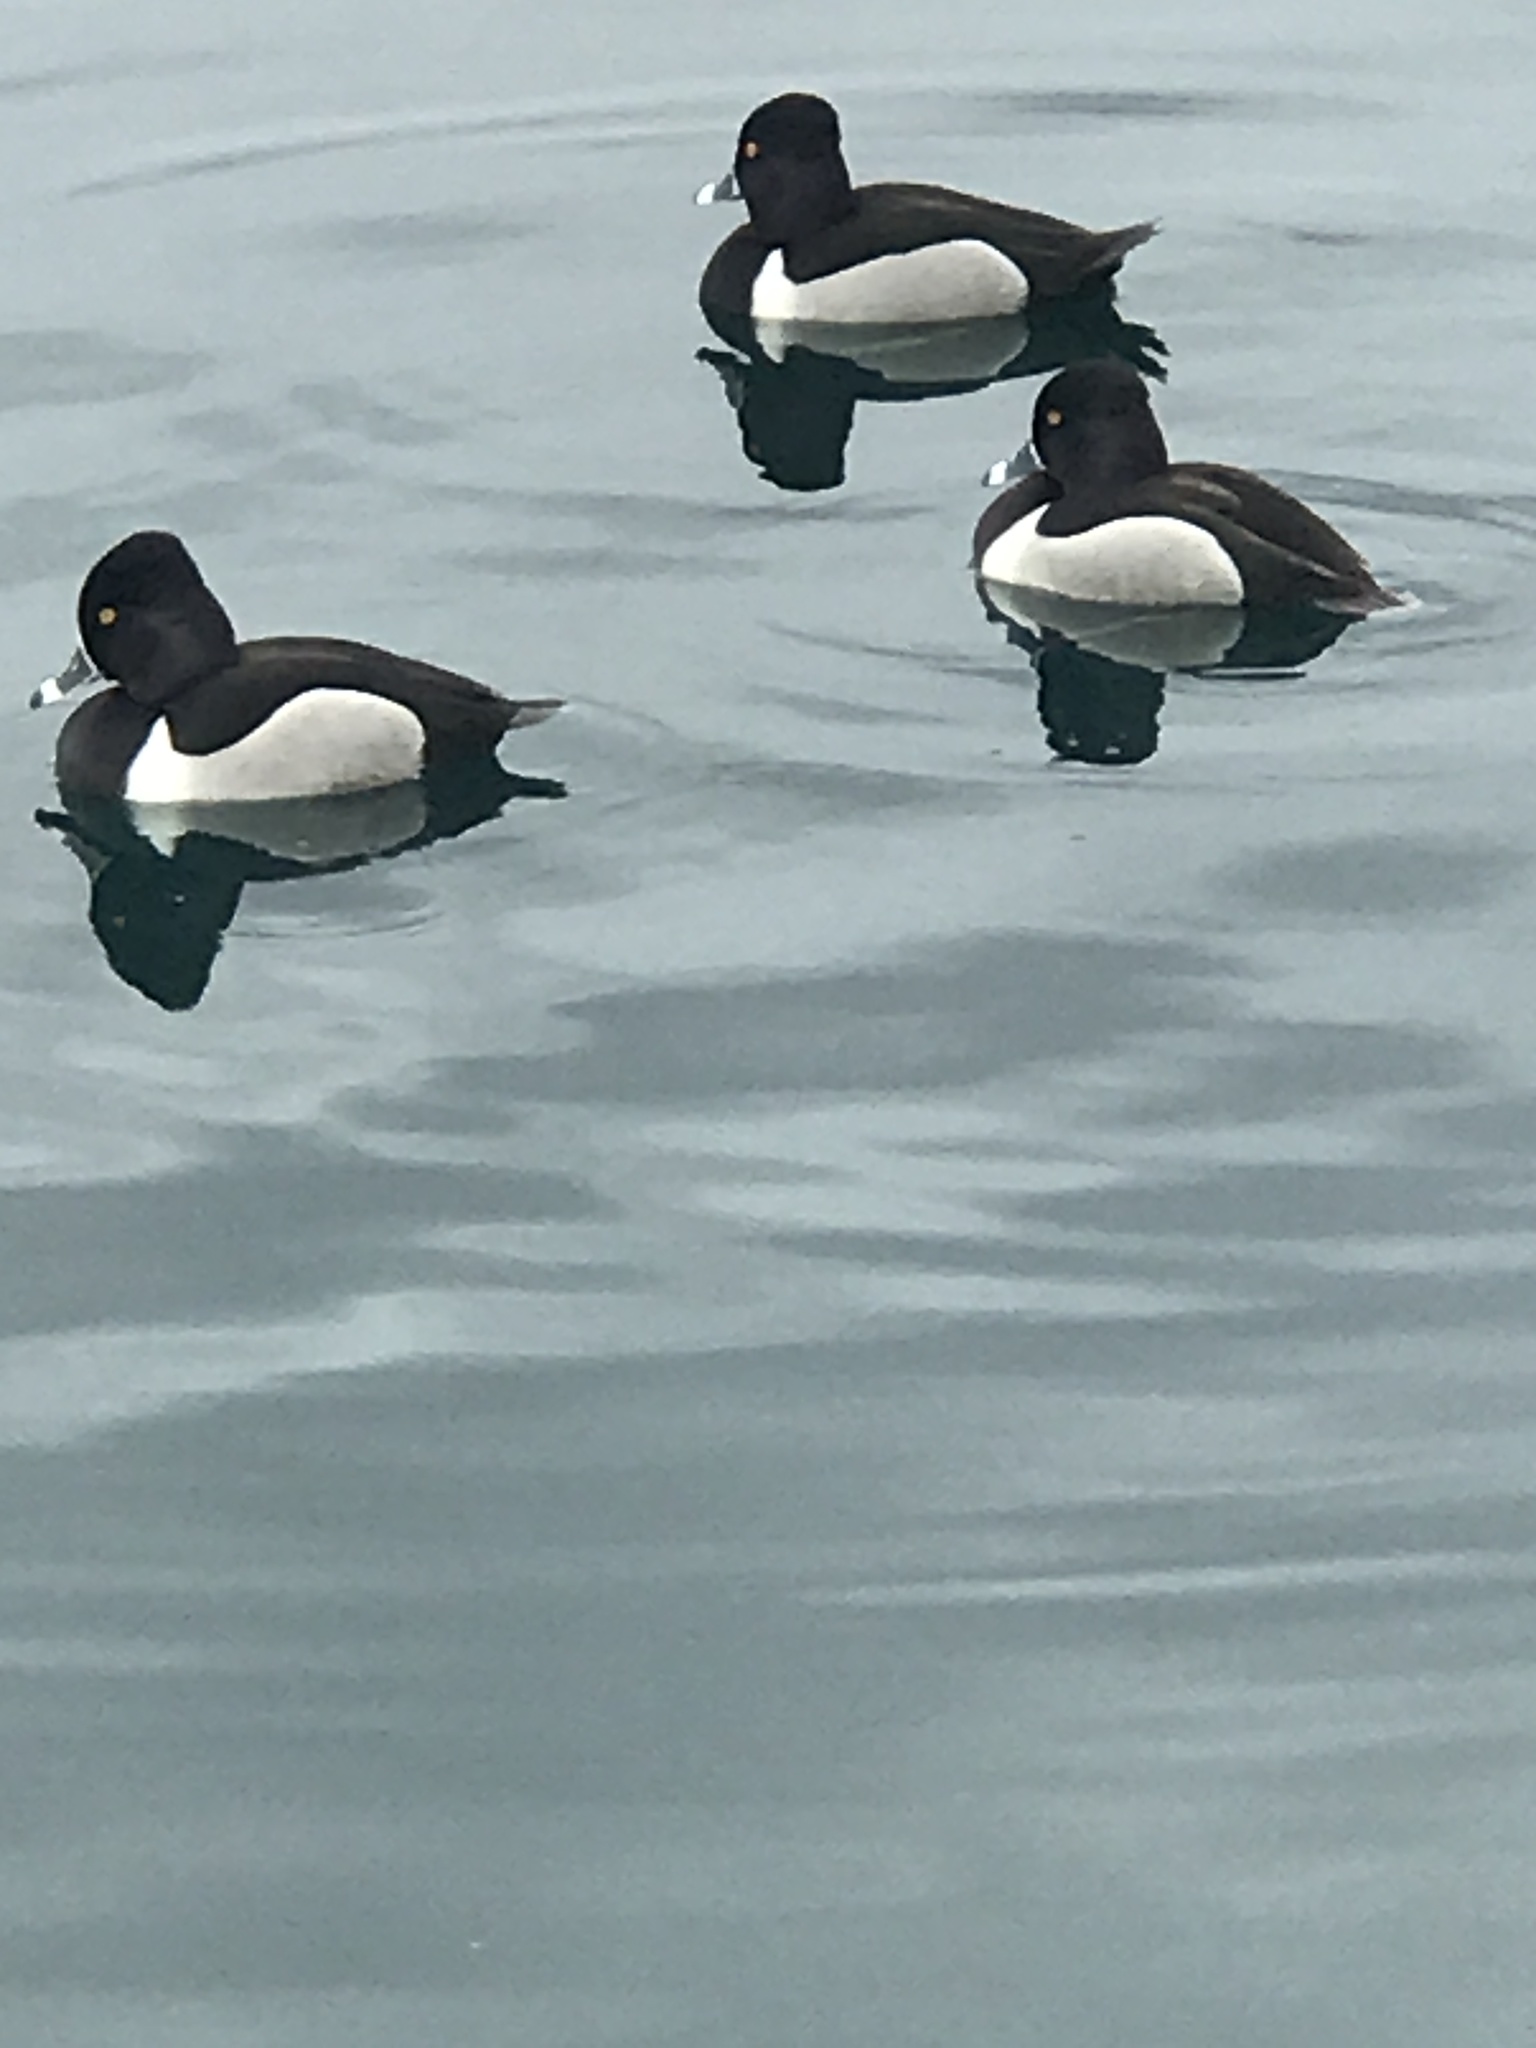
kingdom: Animalia
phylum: Chordata
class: Aves
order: Anseriformes
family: Anatidae
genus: Aythya
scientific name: Aythya collaris
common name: Ring-necked duck
